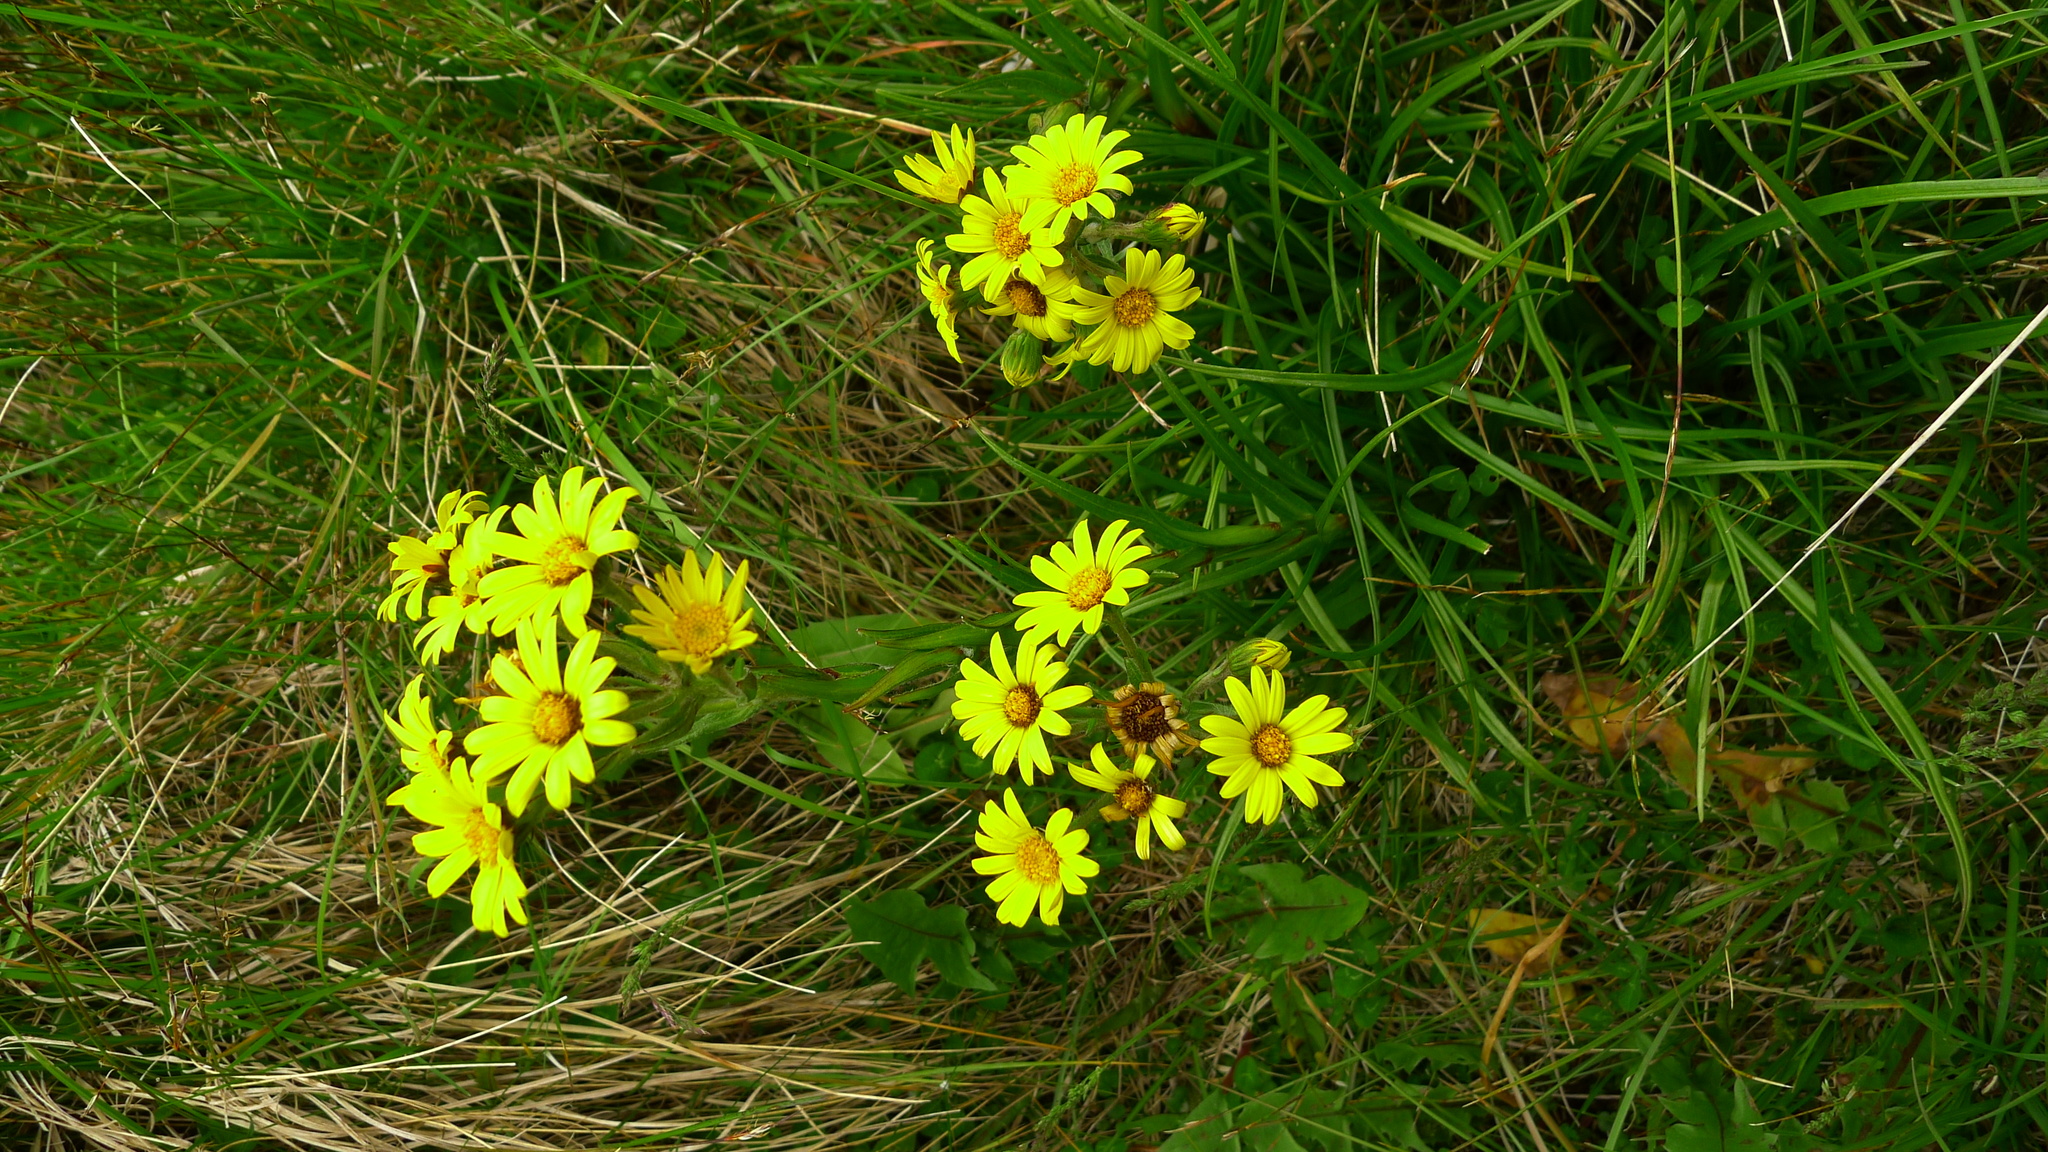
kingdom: Plantae
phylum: Tracheophyta
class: Magnoliopsida
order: Asterales
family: Asteraceae
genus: Dolichoglottis
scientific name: Dolichoglottis lyallii
